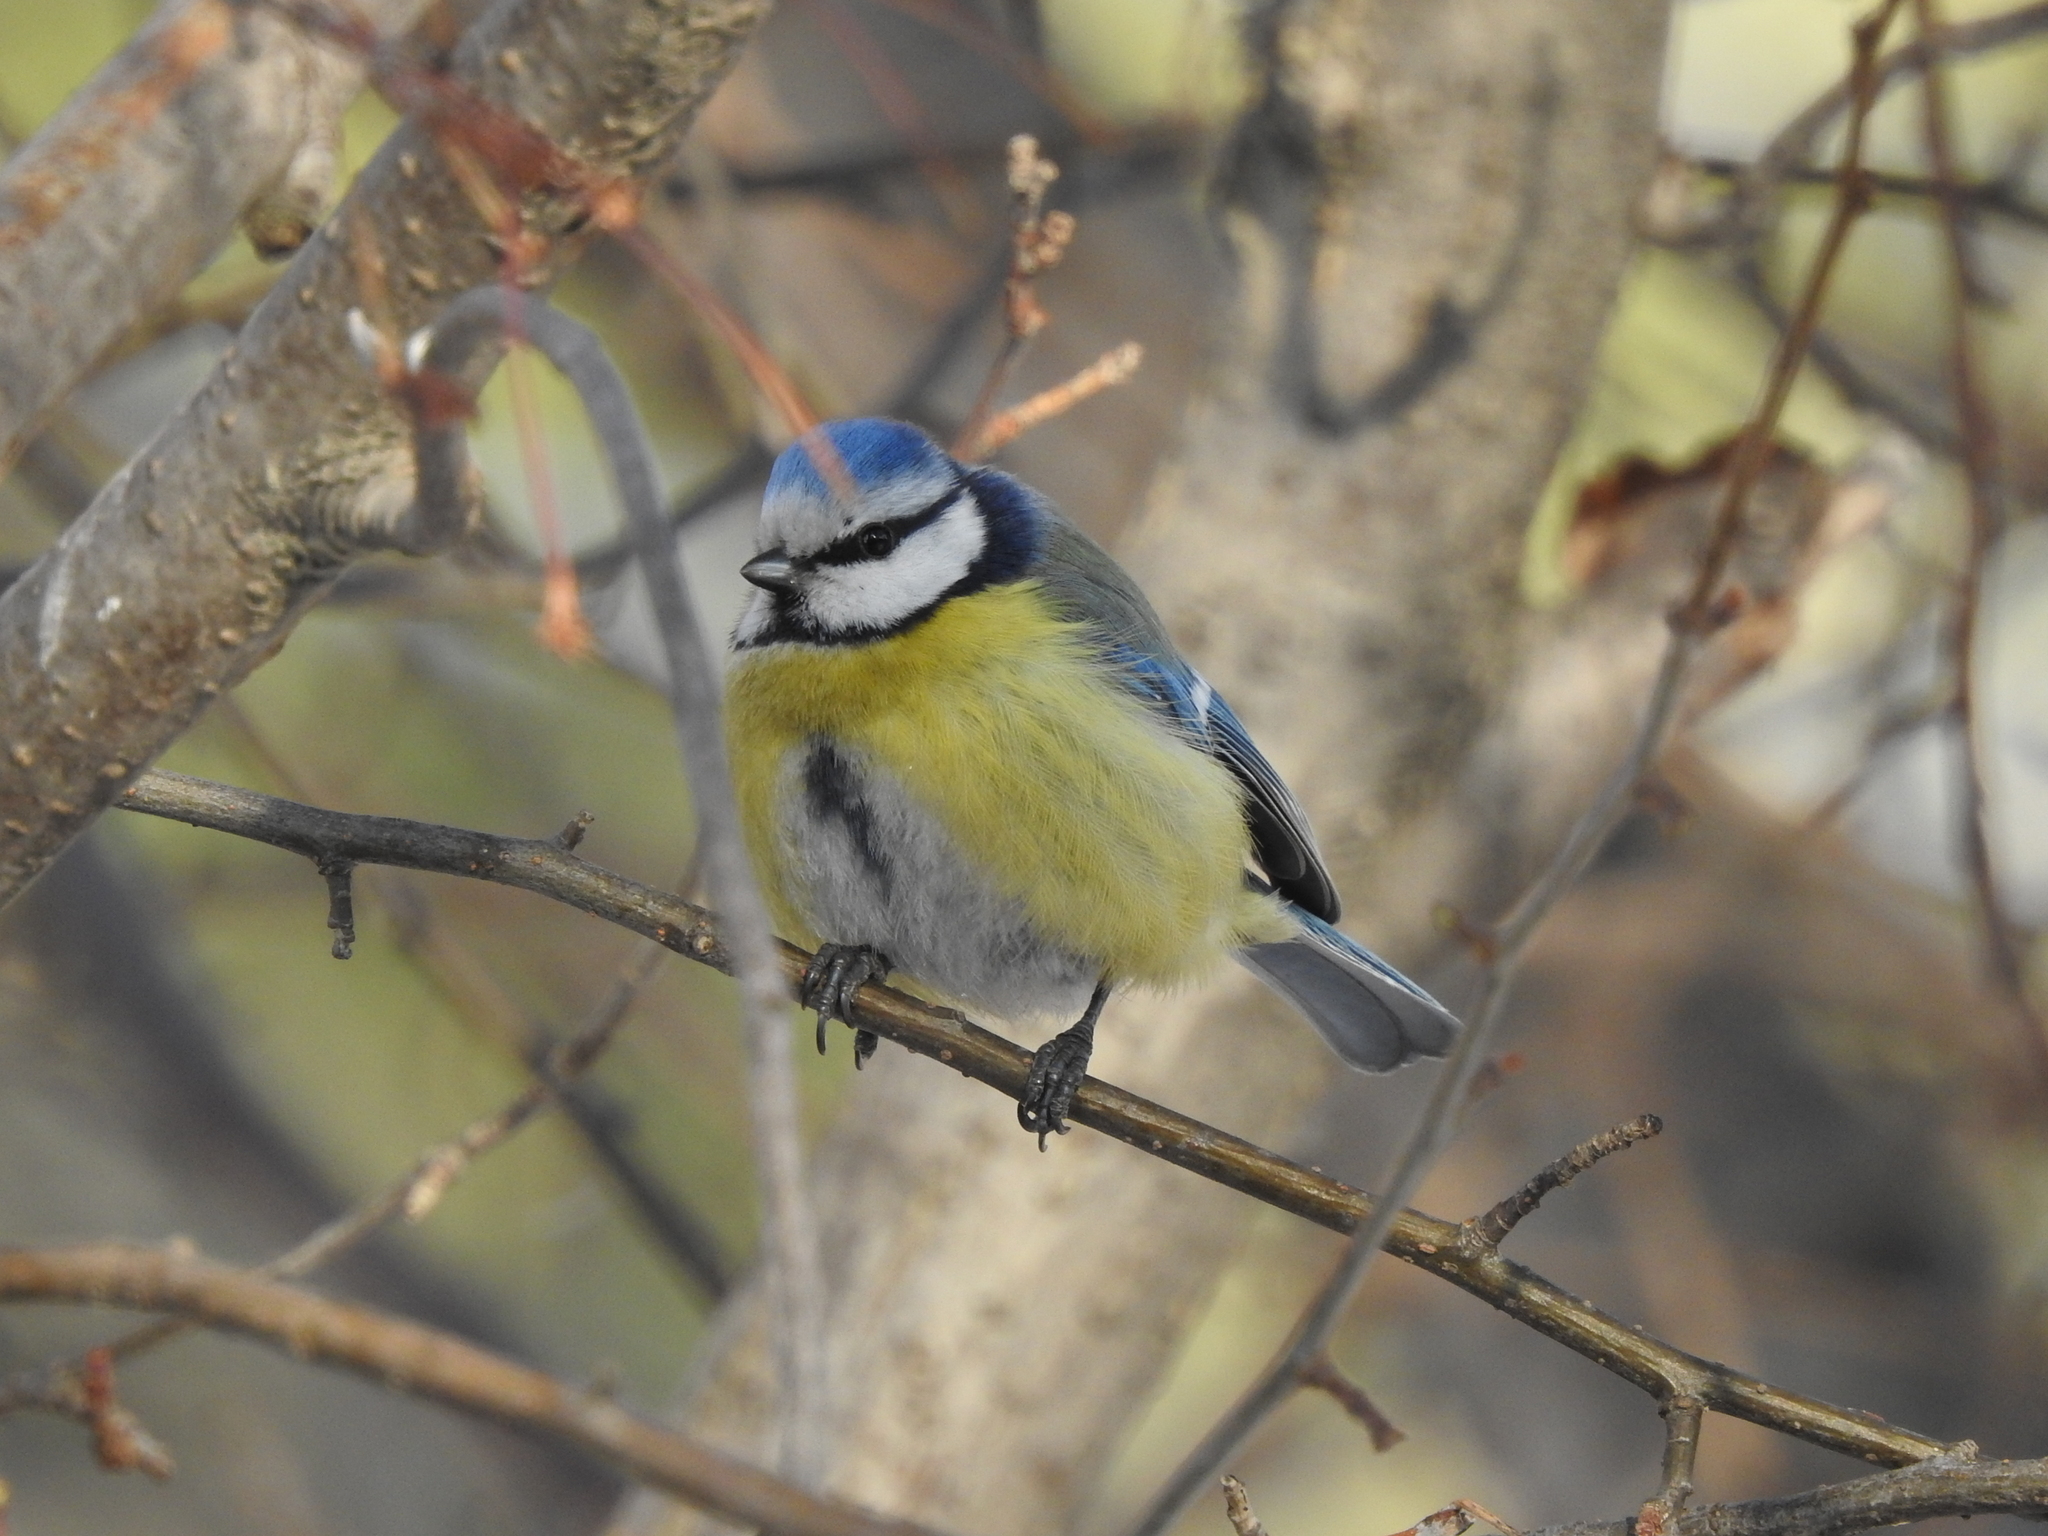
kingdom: Animalia
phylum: Chordata
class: Aves
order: Passeriformes
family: Paridae
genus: Cyanistes
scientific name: Cyanistes caeruleus
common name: Eurasian blue tit
